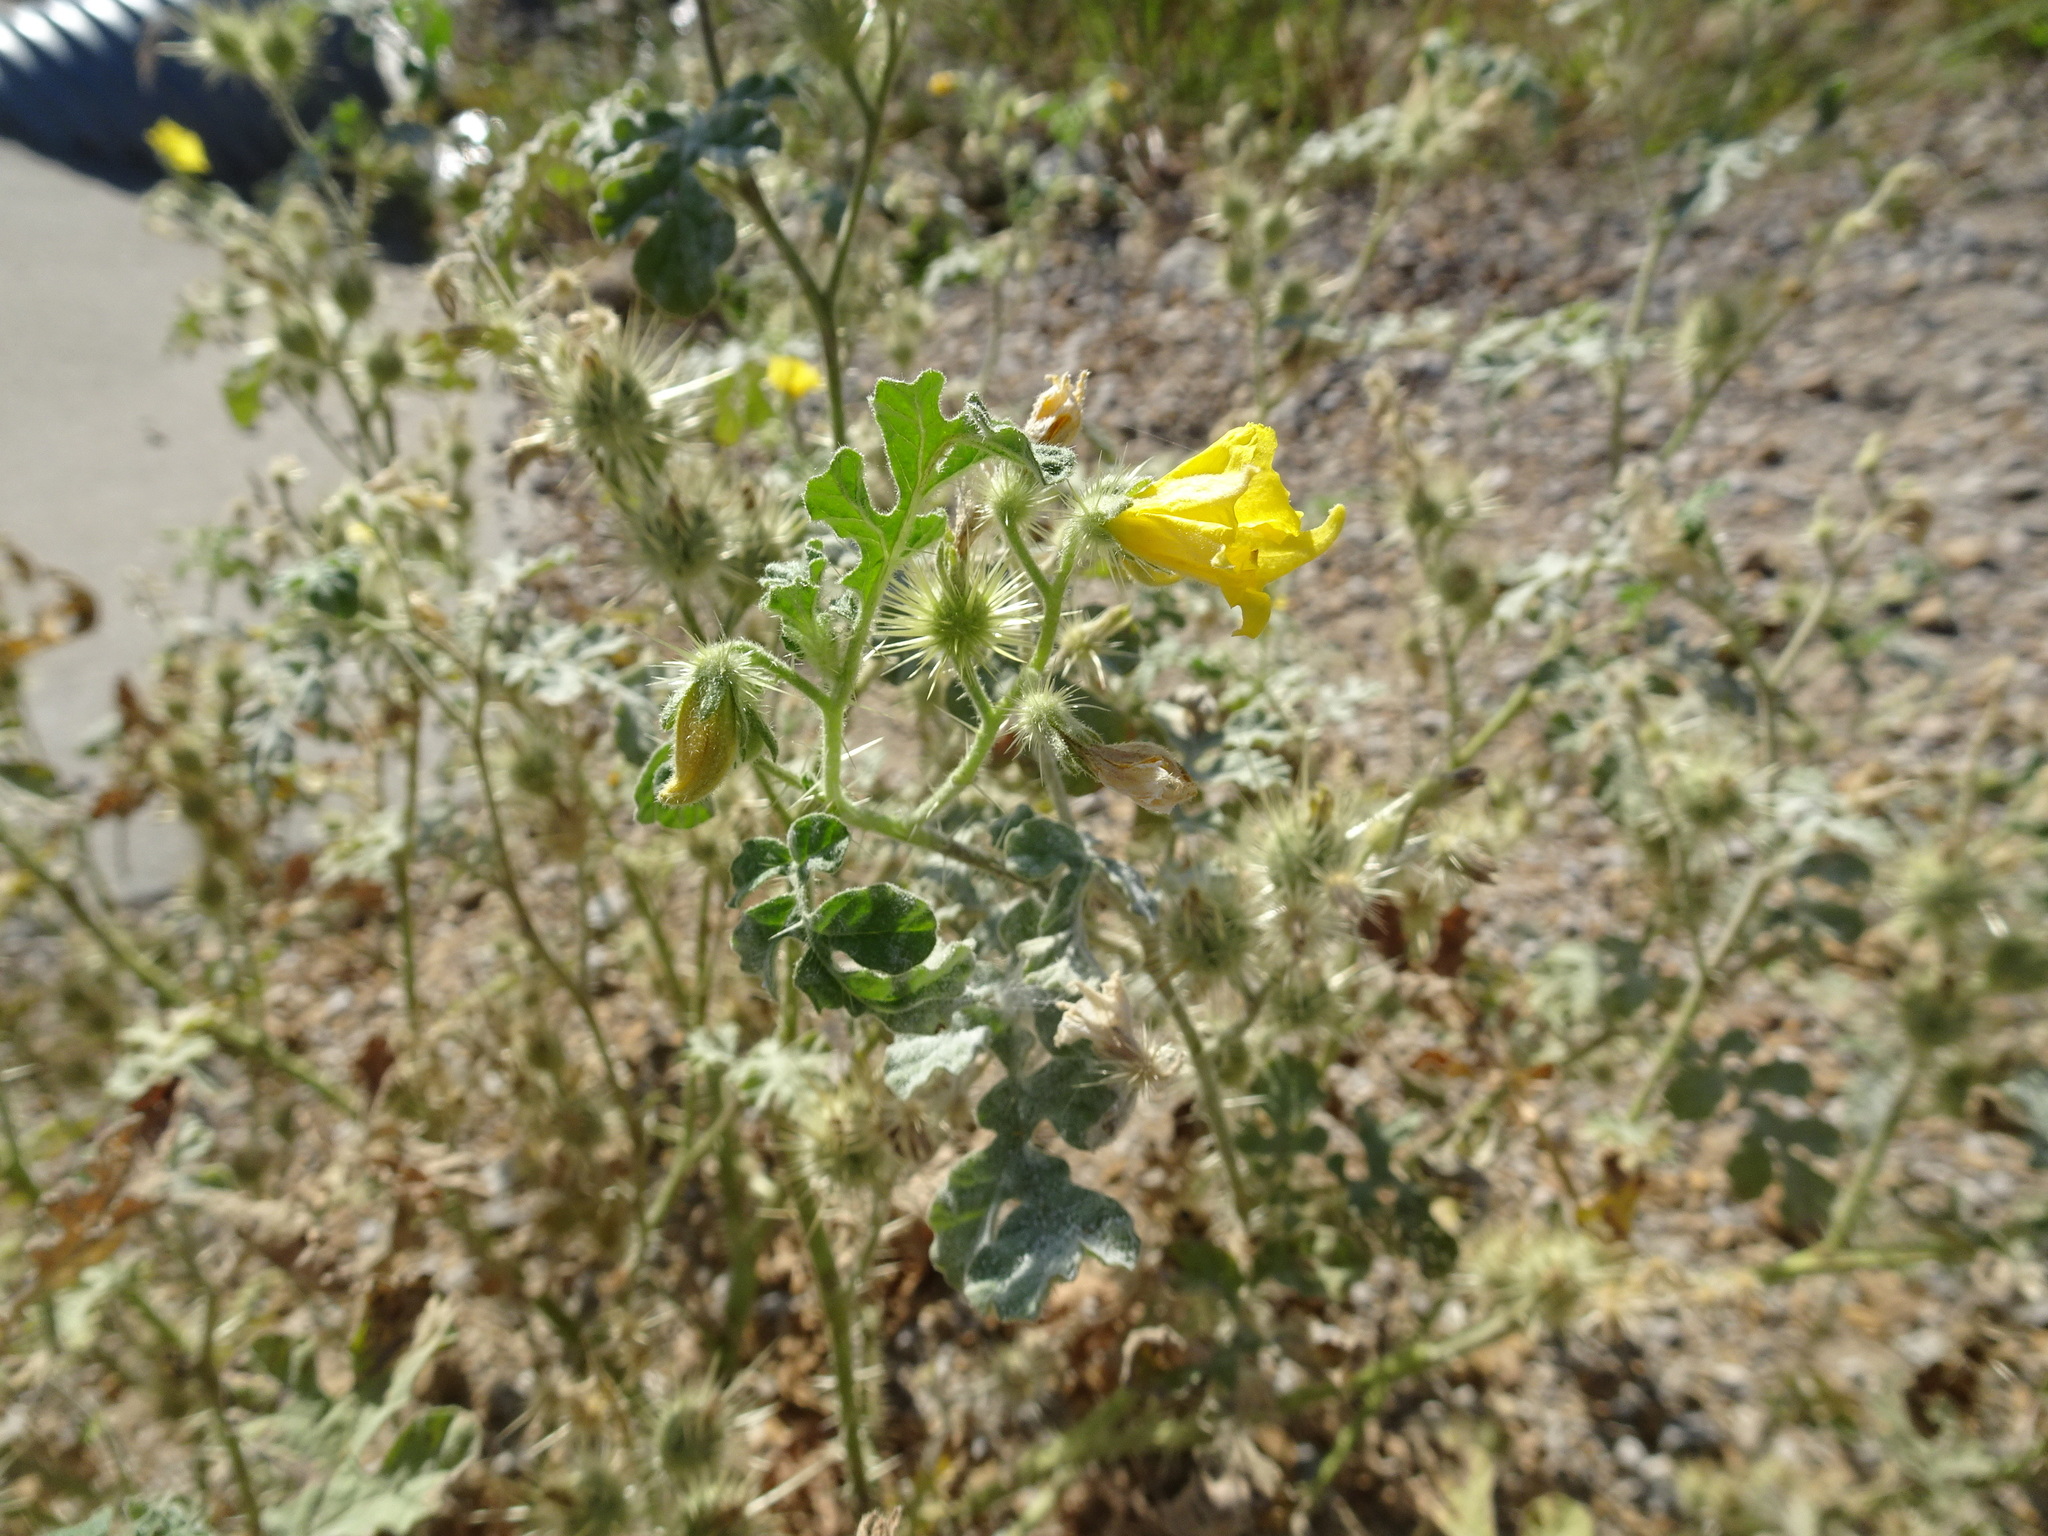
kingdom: Plantae
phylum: Tracheophyta
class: Magnoliopsida
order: Solanales
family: Solanaceae
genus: Solanum
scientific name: Solanum angustifolium
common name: Buffalobur nightshade
